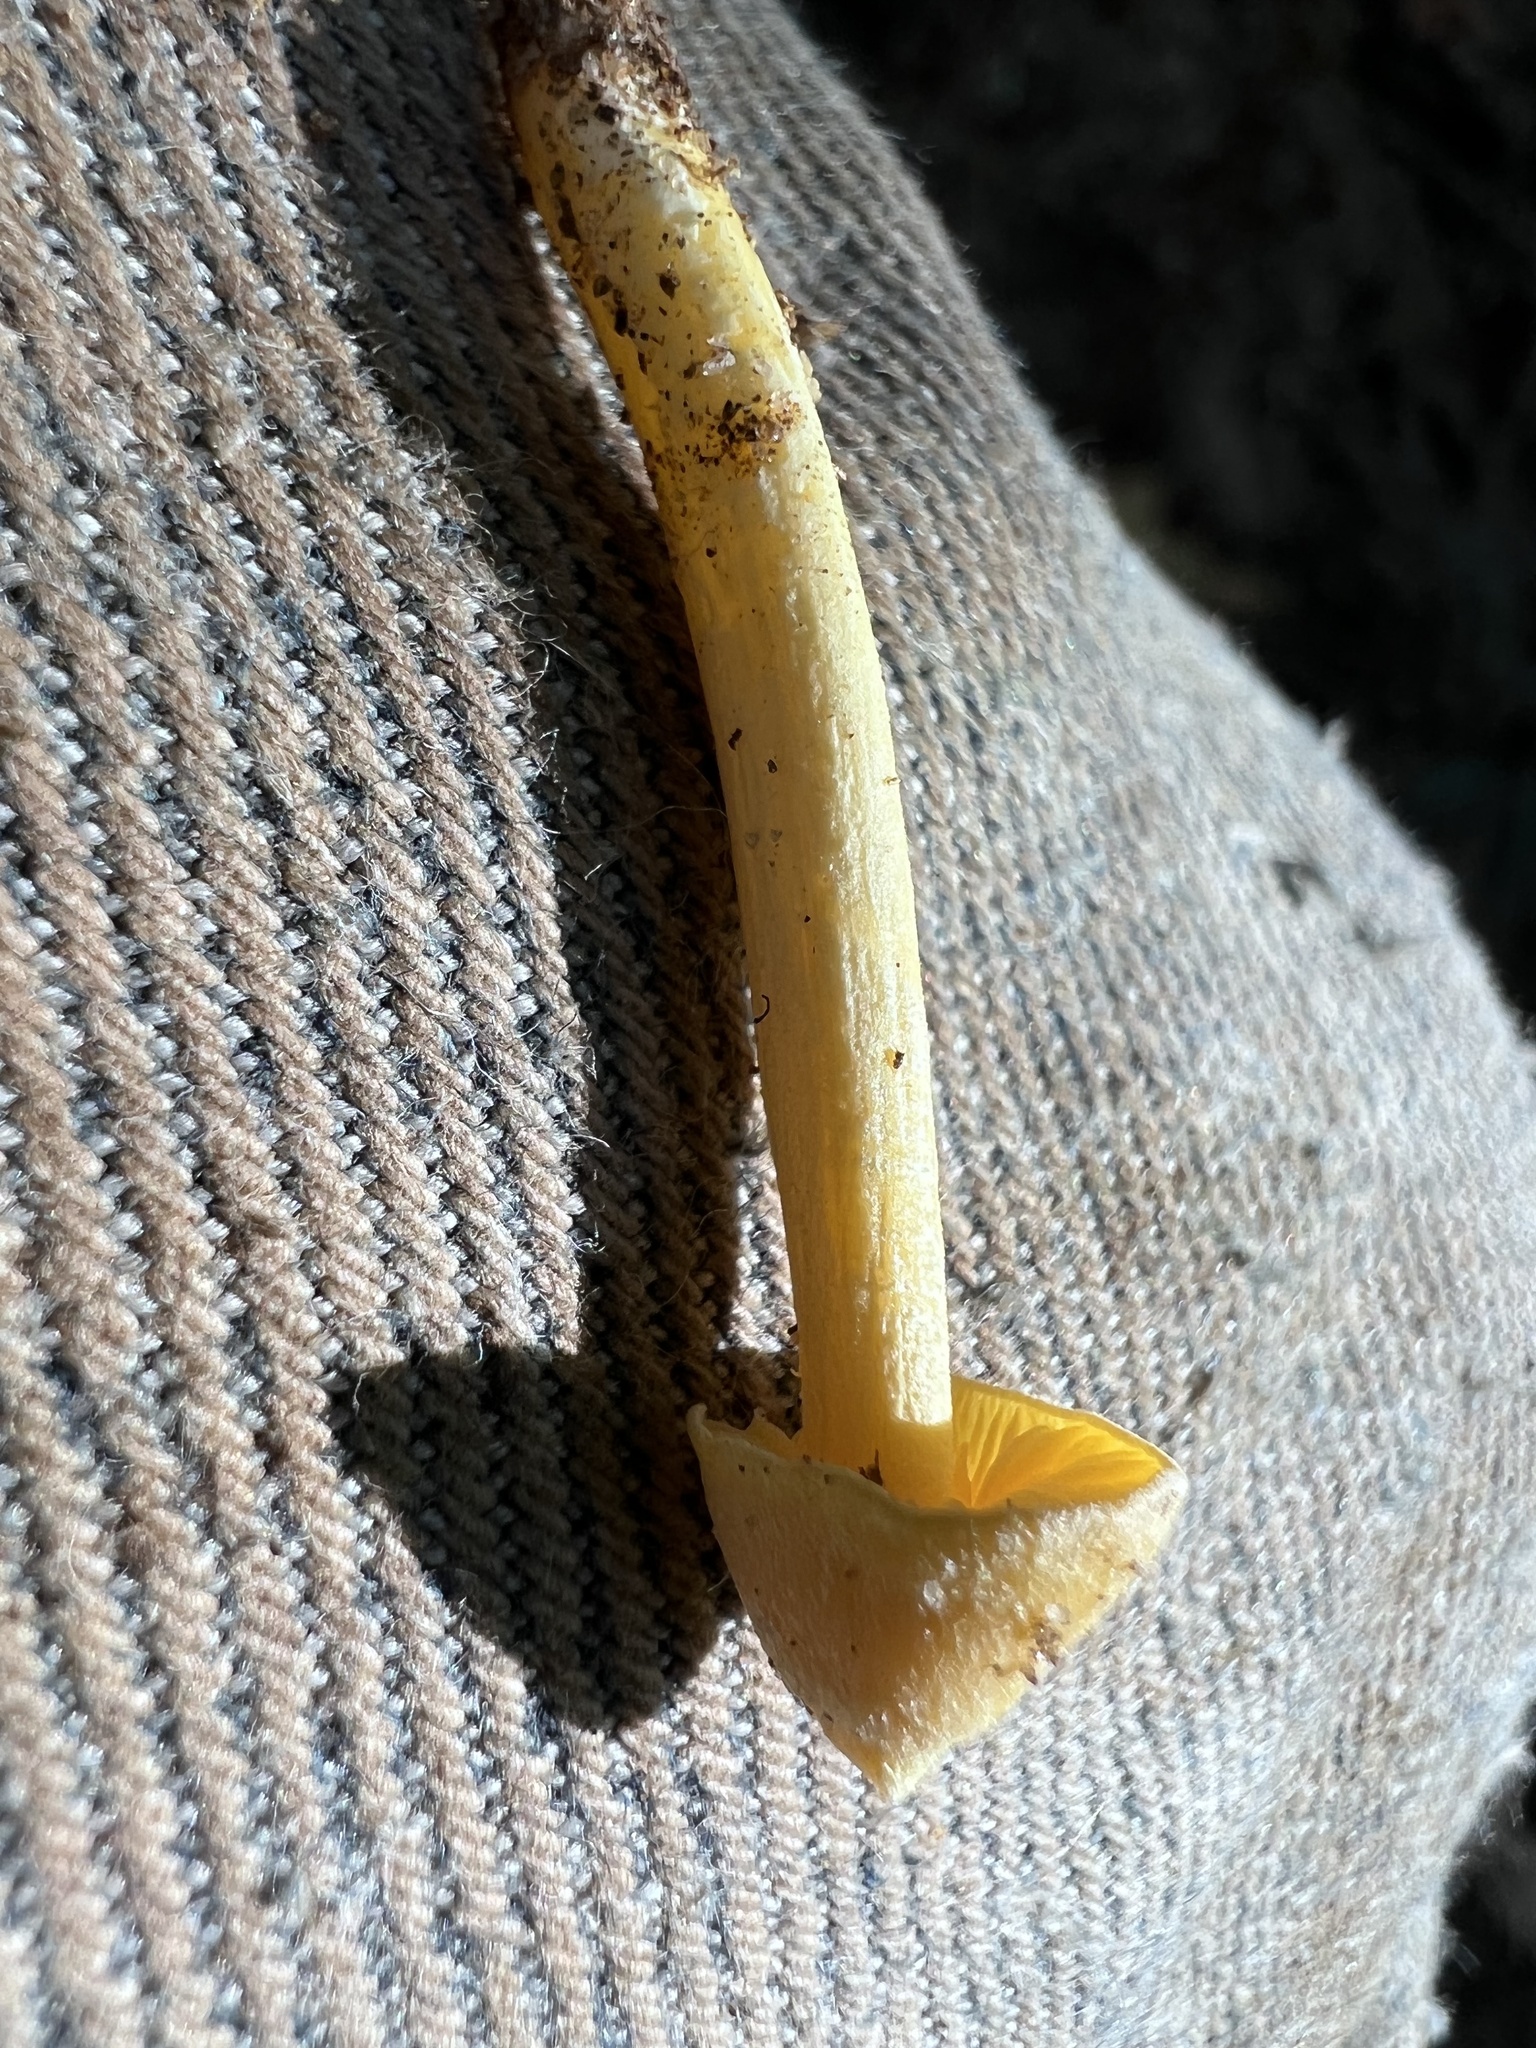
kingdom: Fungi
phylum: Basidiomycota
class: Agaricomycetes
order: Agaricales
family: Entolomataceae
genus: Entoloma
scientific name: Entoloma murrayi
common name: Yellow unicorn entoloma
